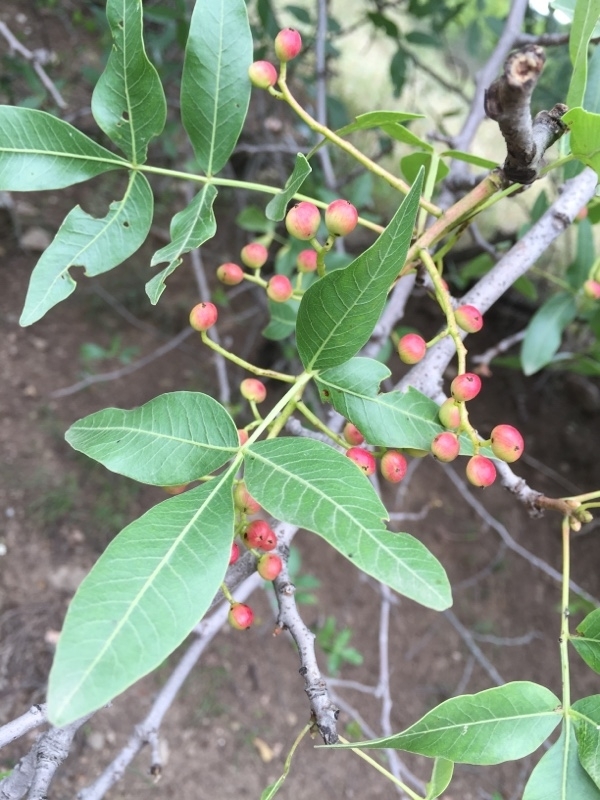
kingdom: Plantae
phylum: Tracheophyta
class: Magnoliopsida
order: Sapindales
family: Anacardiaceae
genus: Pistacia
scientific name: Pistacia atlantica
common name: Mt. atlas mastic tree
